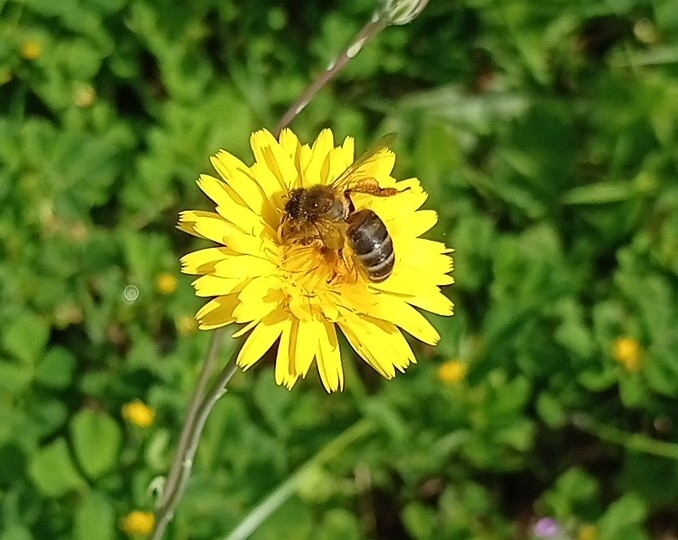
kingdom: Animalia
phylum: Arthropoda
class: Insecta
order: Hymenoptera
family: Apidae
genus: Apis
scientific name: Apis mellifera
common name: Honey bee
